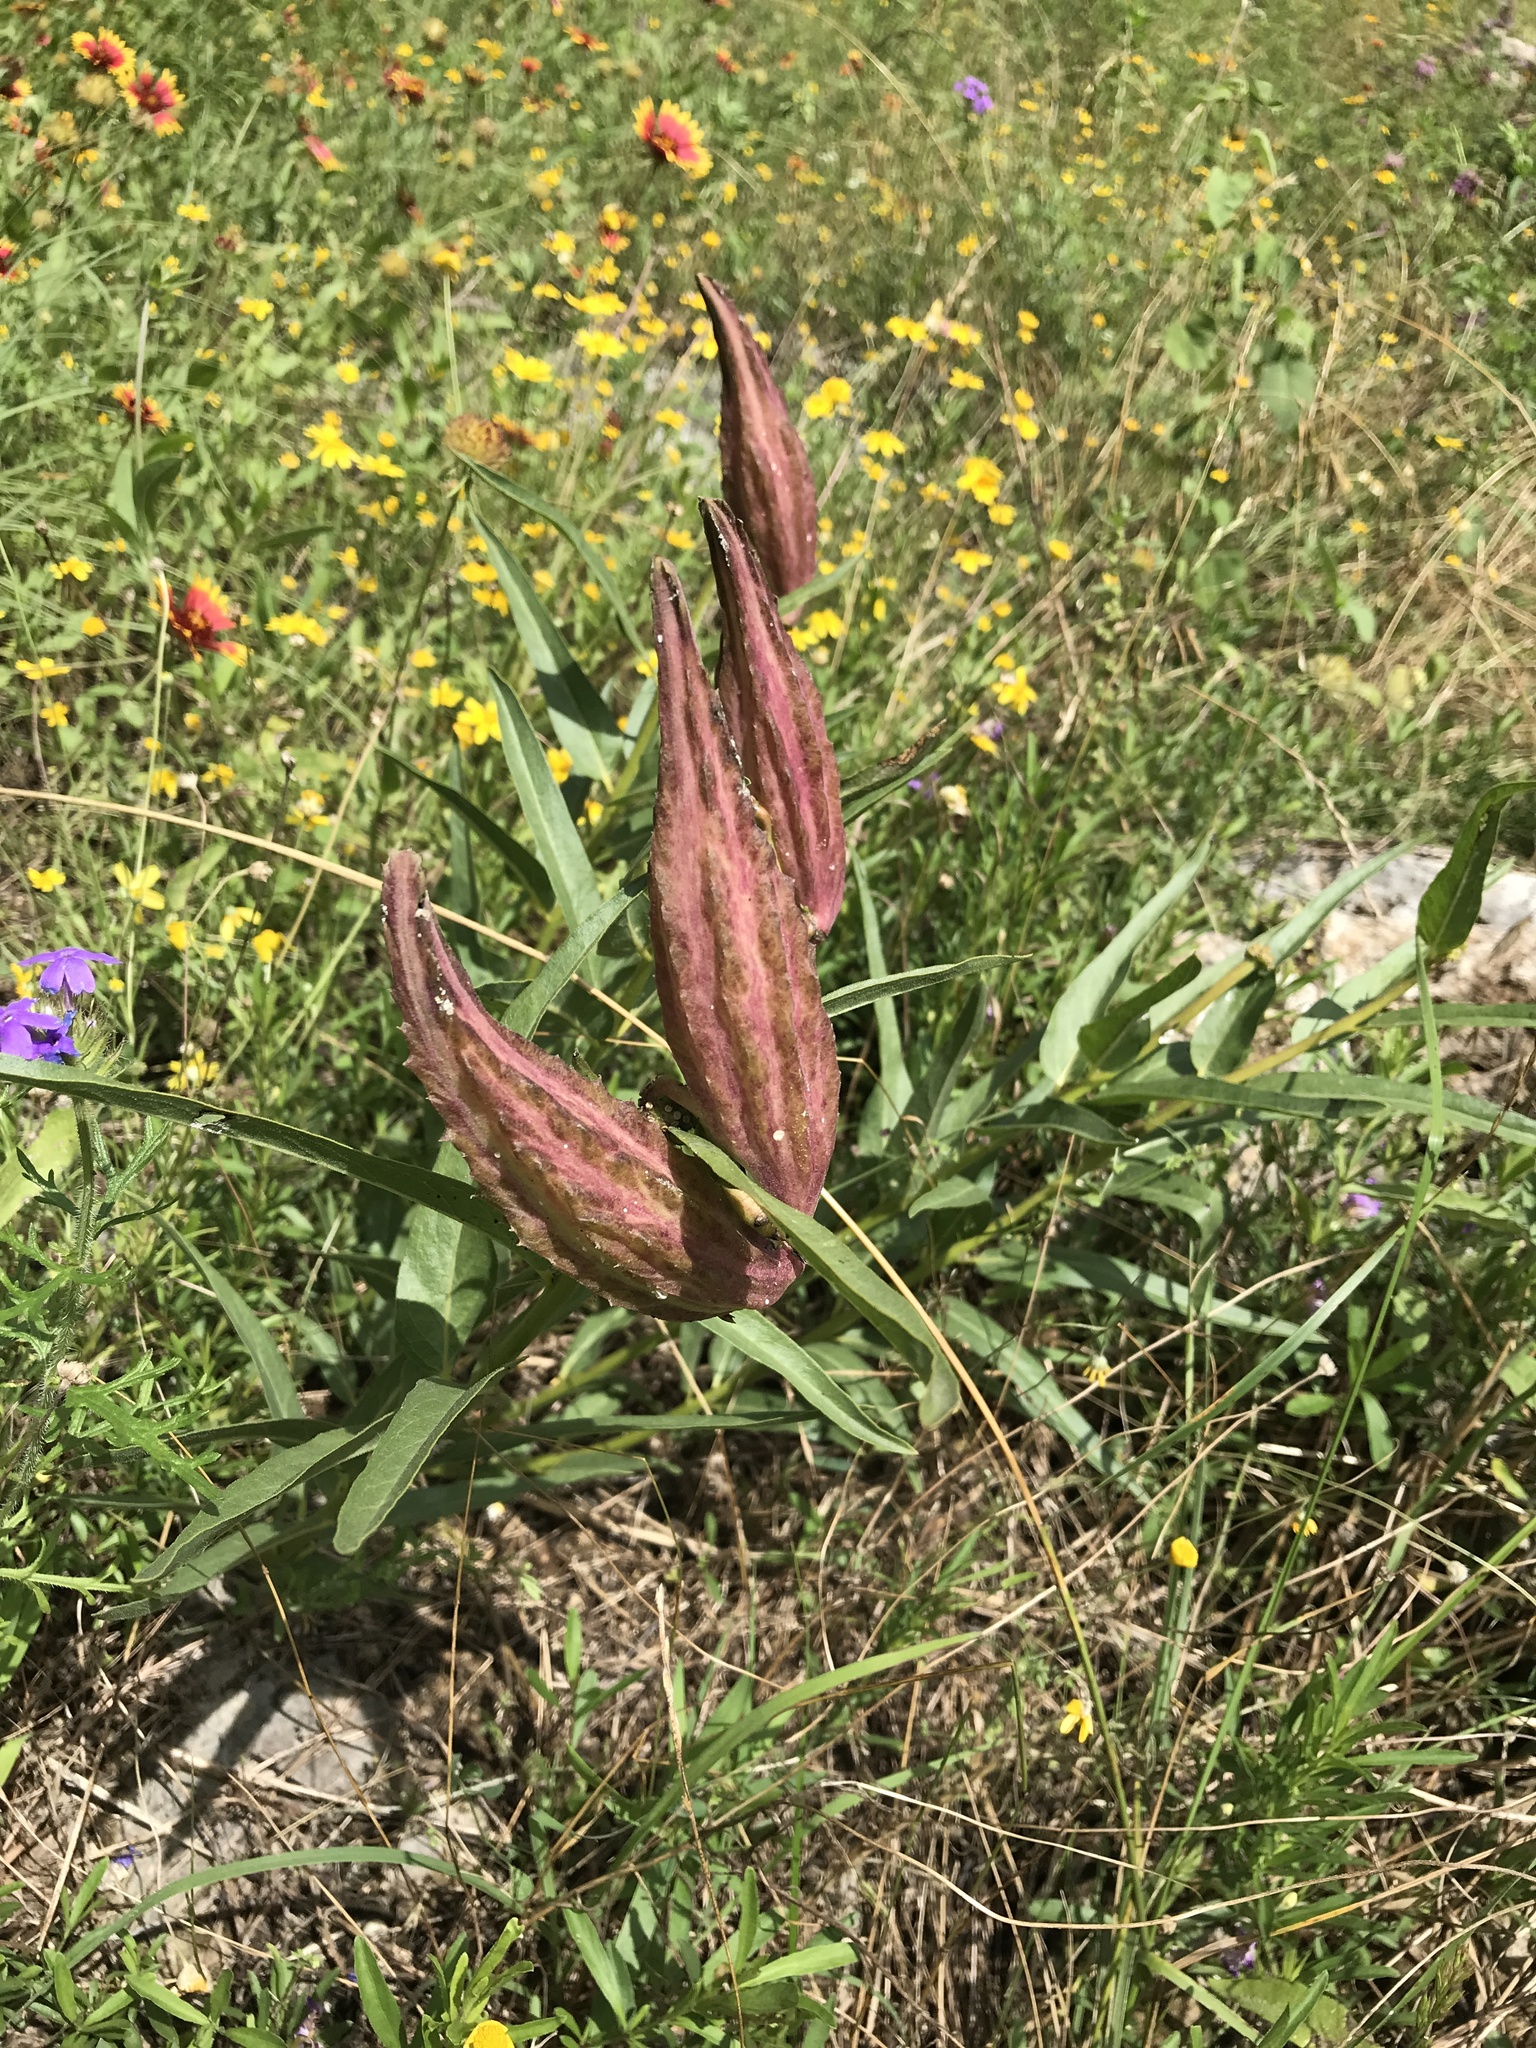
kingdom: Plantae
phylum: Tracheophyta
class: Magnoliopsida
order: Gentianales
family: Apocynaceae
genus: Asclepias
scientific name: Asclepias asperula
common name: Antelope horns
